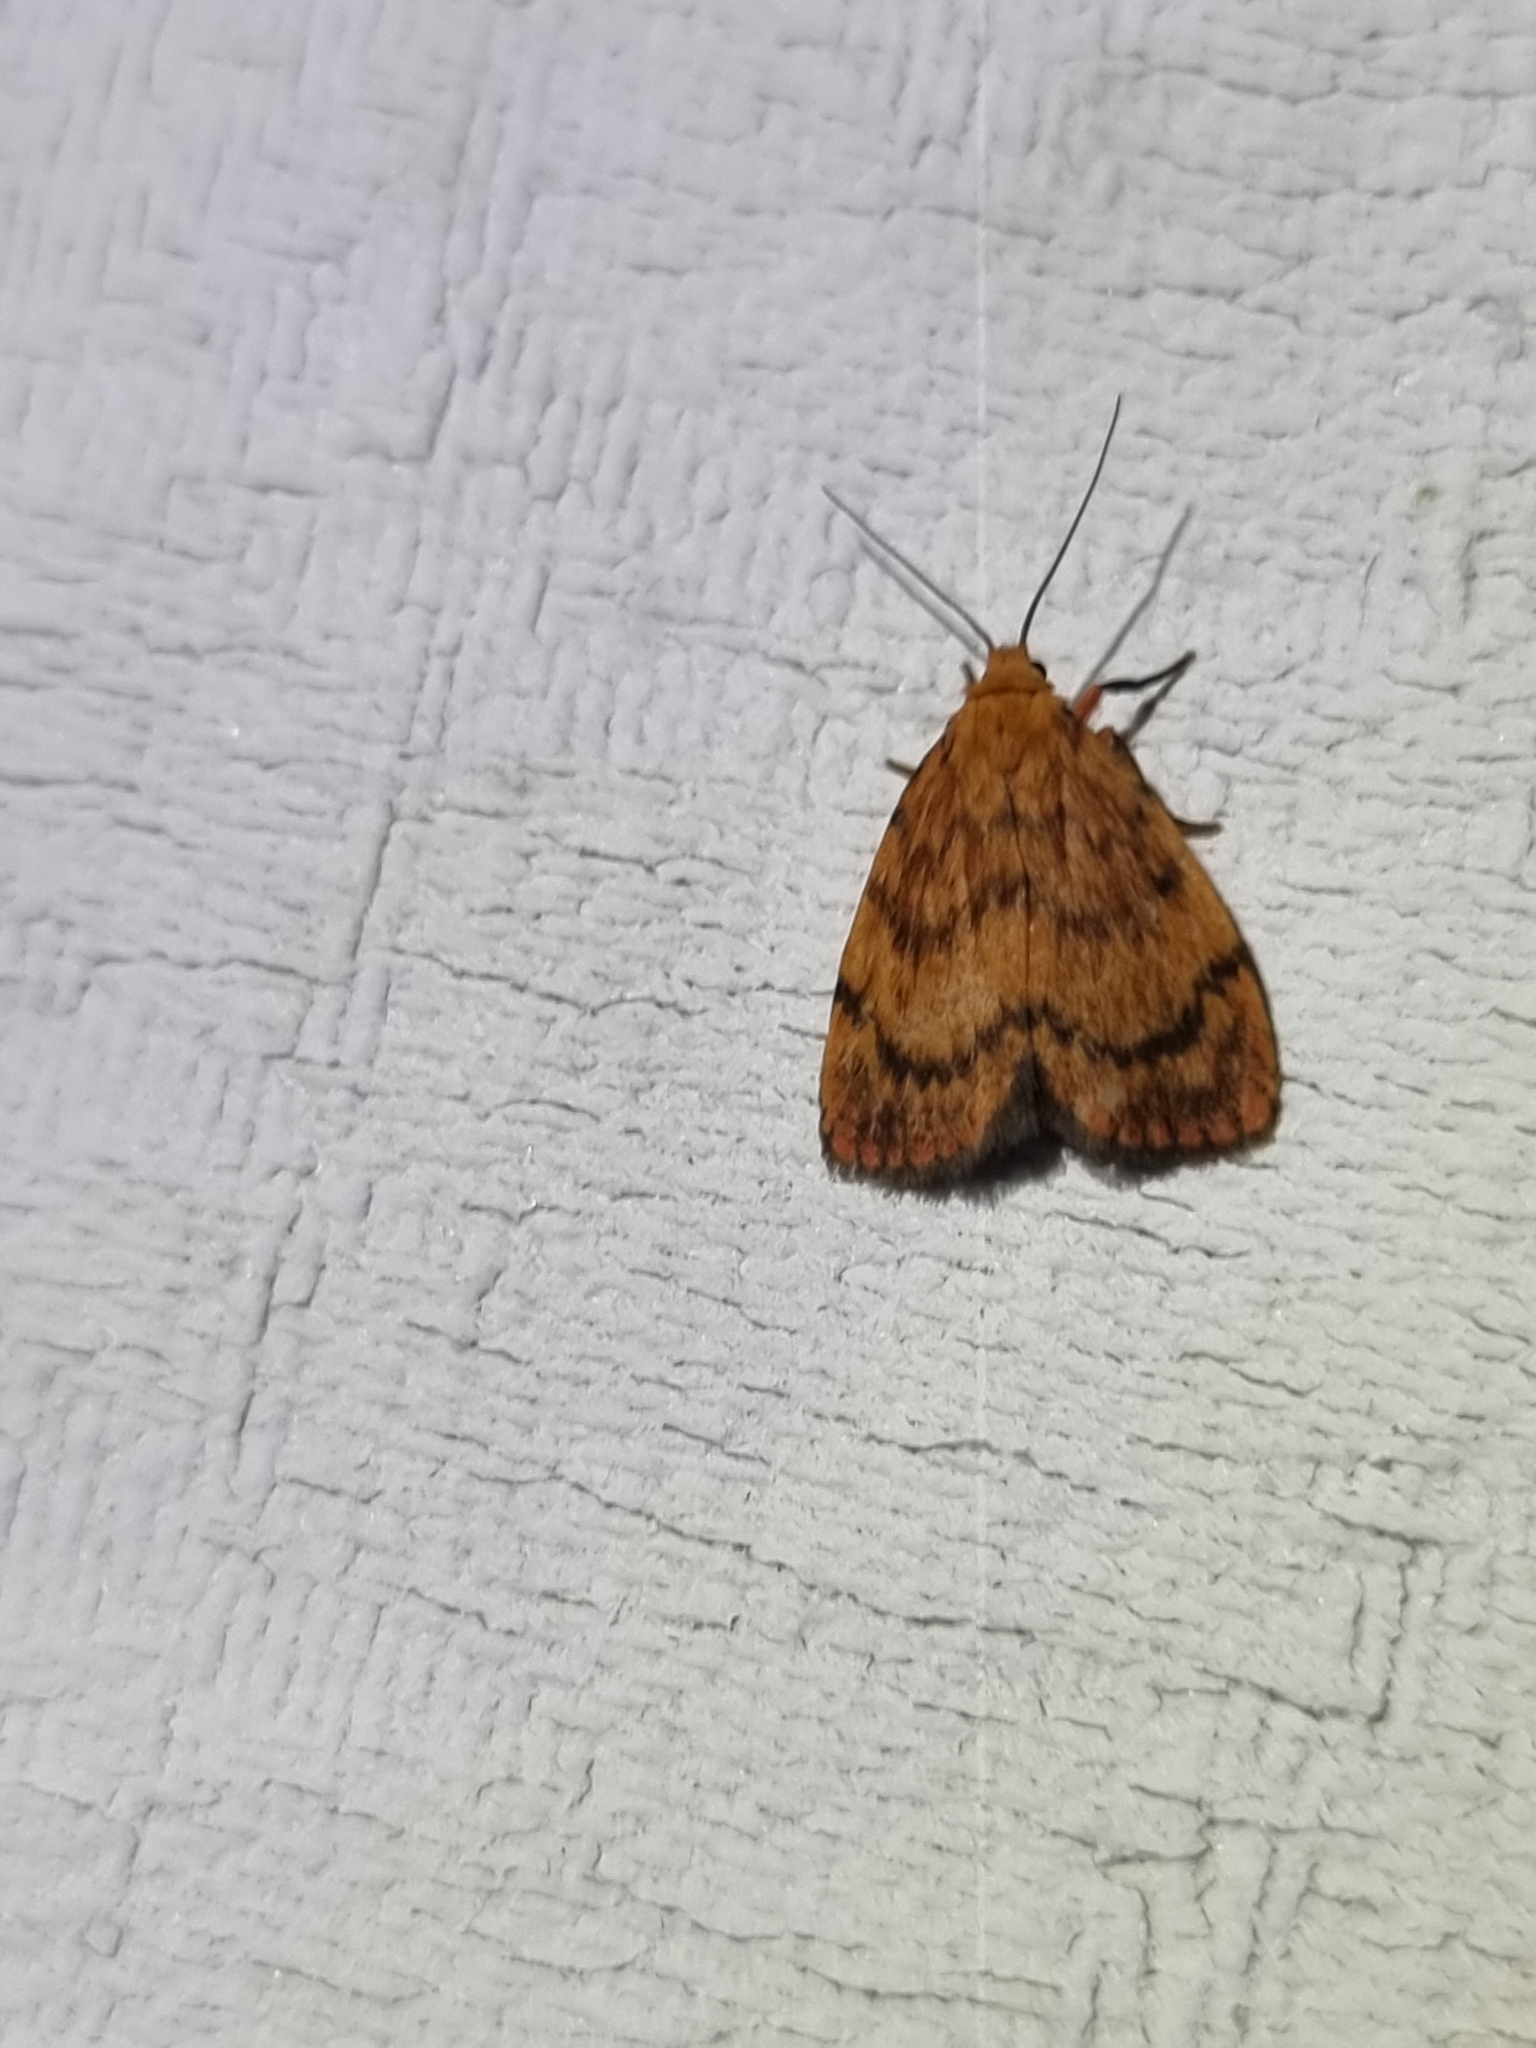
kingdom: Animalia
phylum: Arthropoda
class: Insecta
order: Lepidoptera
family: Erebidae
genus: Cyme
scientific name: Cyme structa
